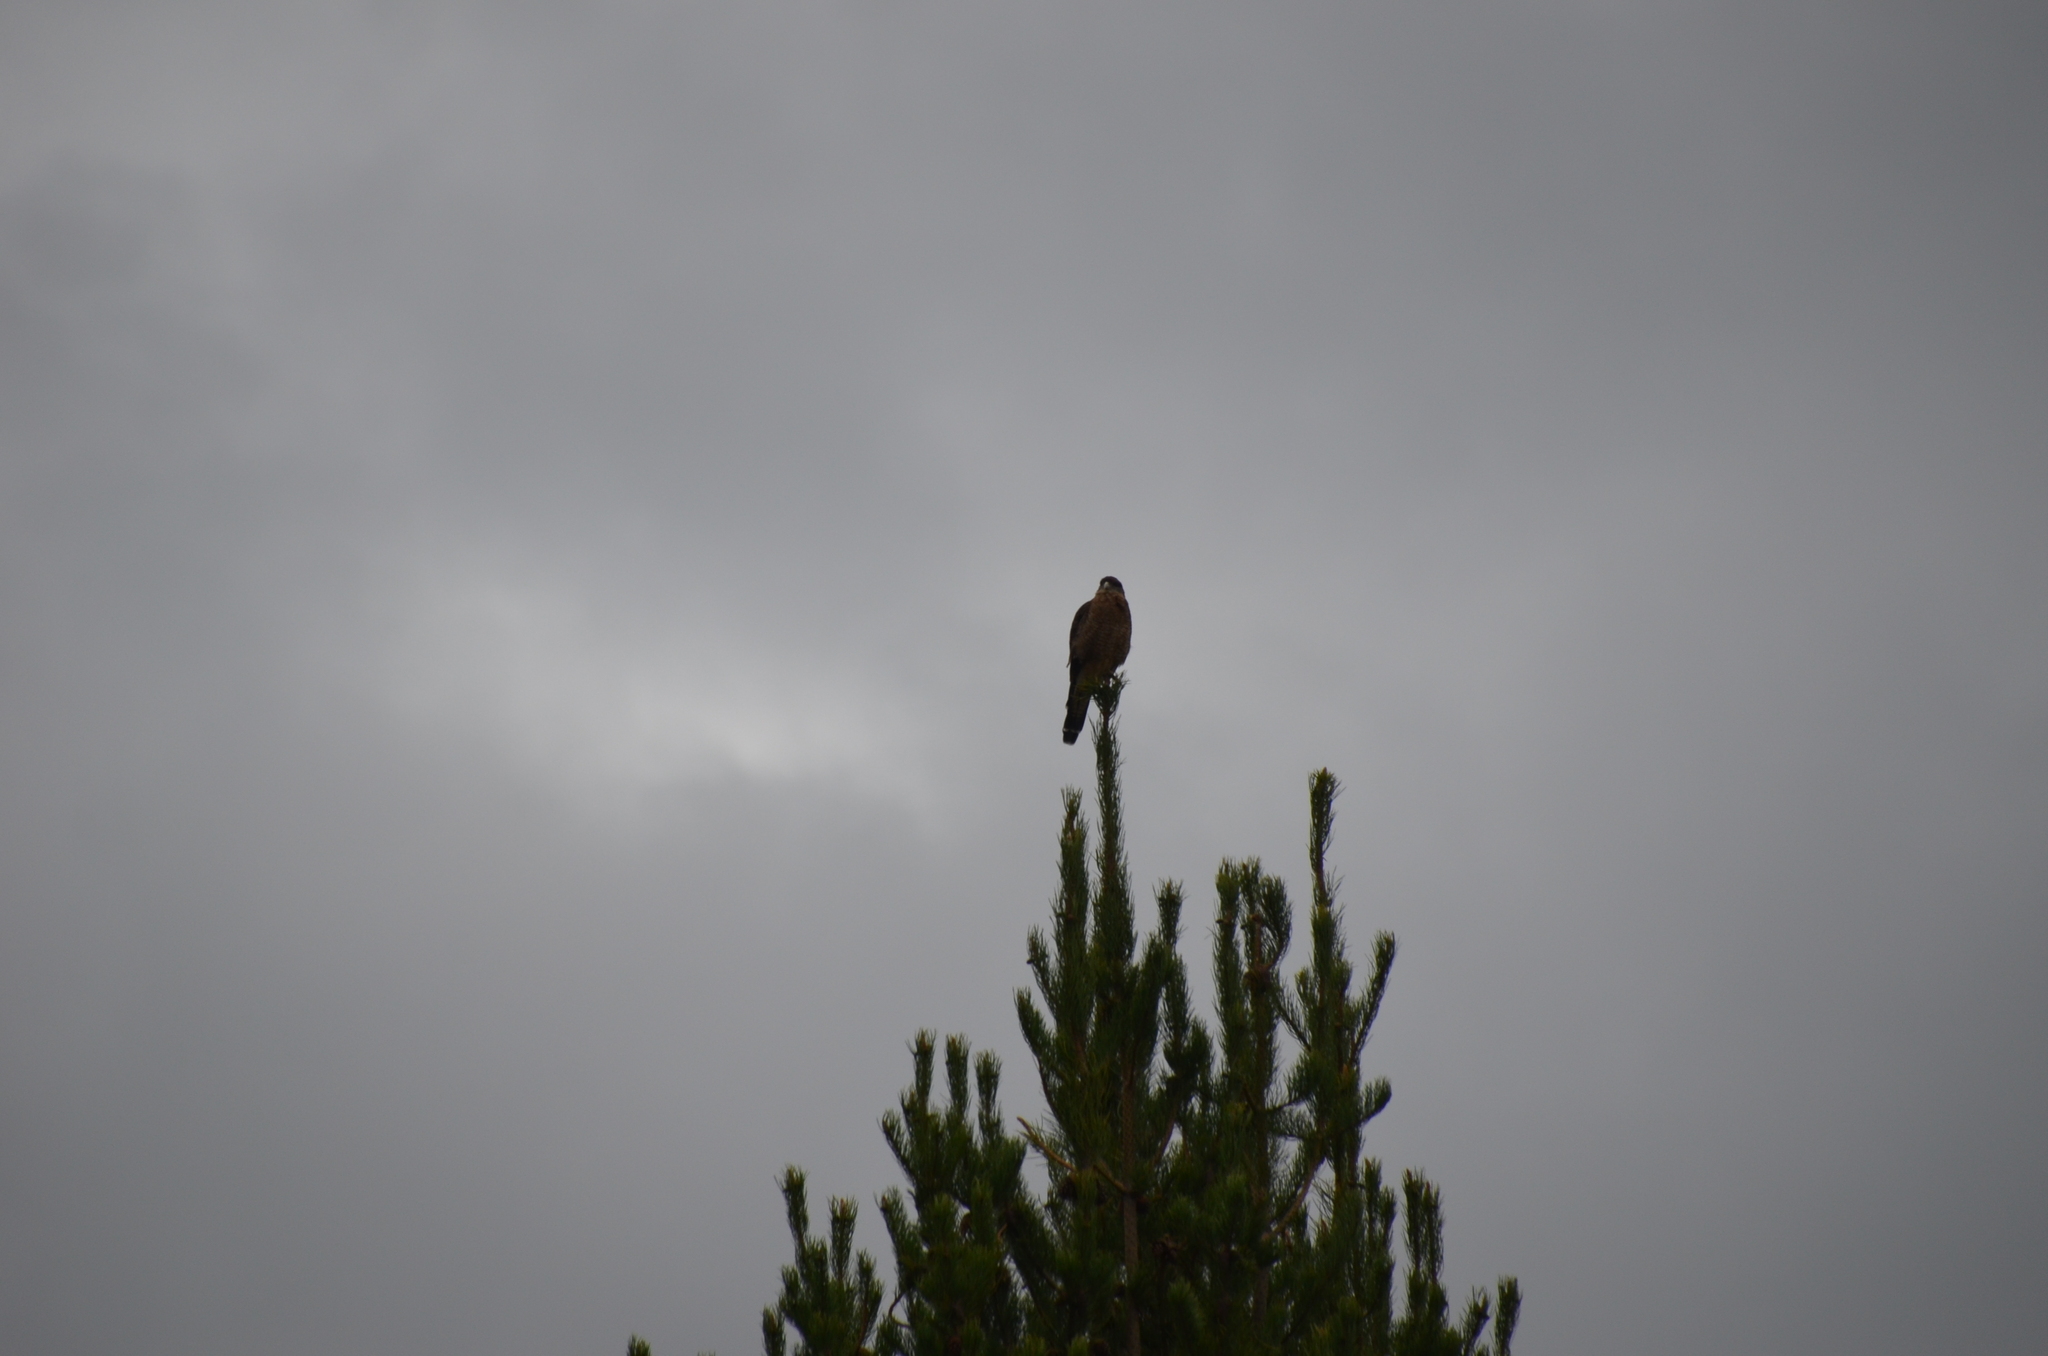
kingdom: Animalia
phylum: Chordata
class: Aves
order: Falconiformes
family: Falconidae
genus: Daptrius
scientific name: Daptrius
